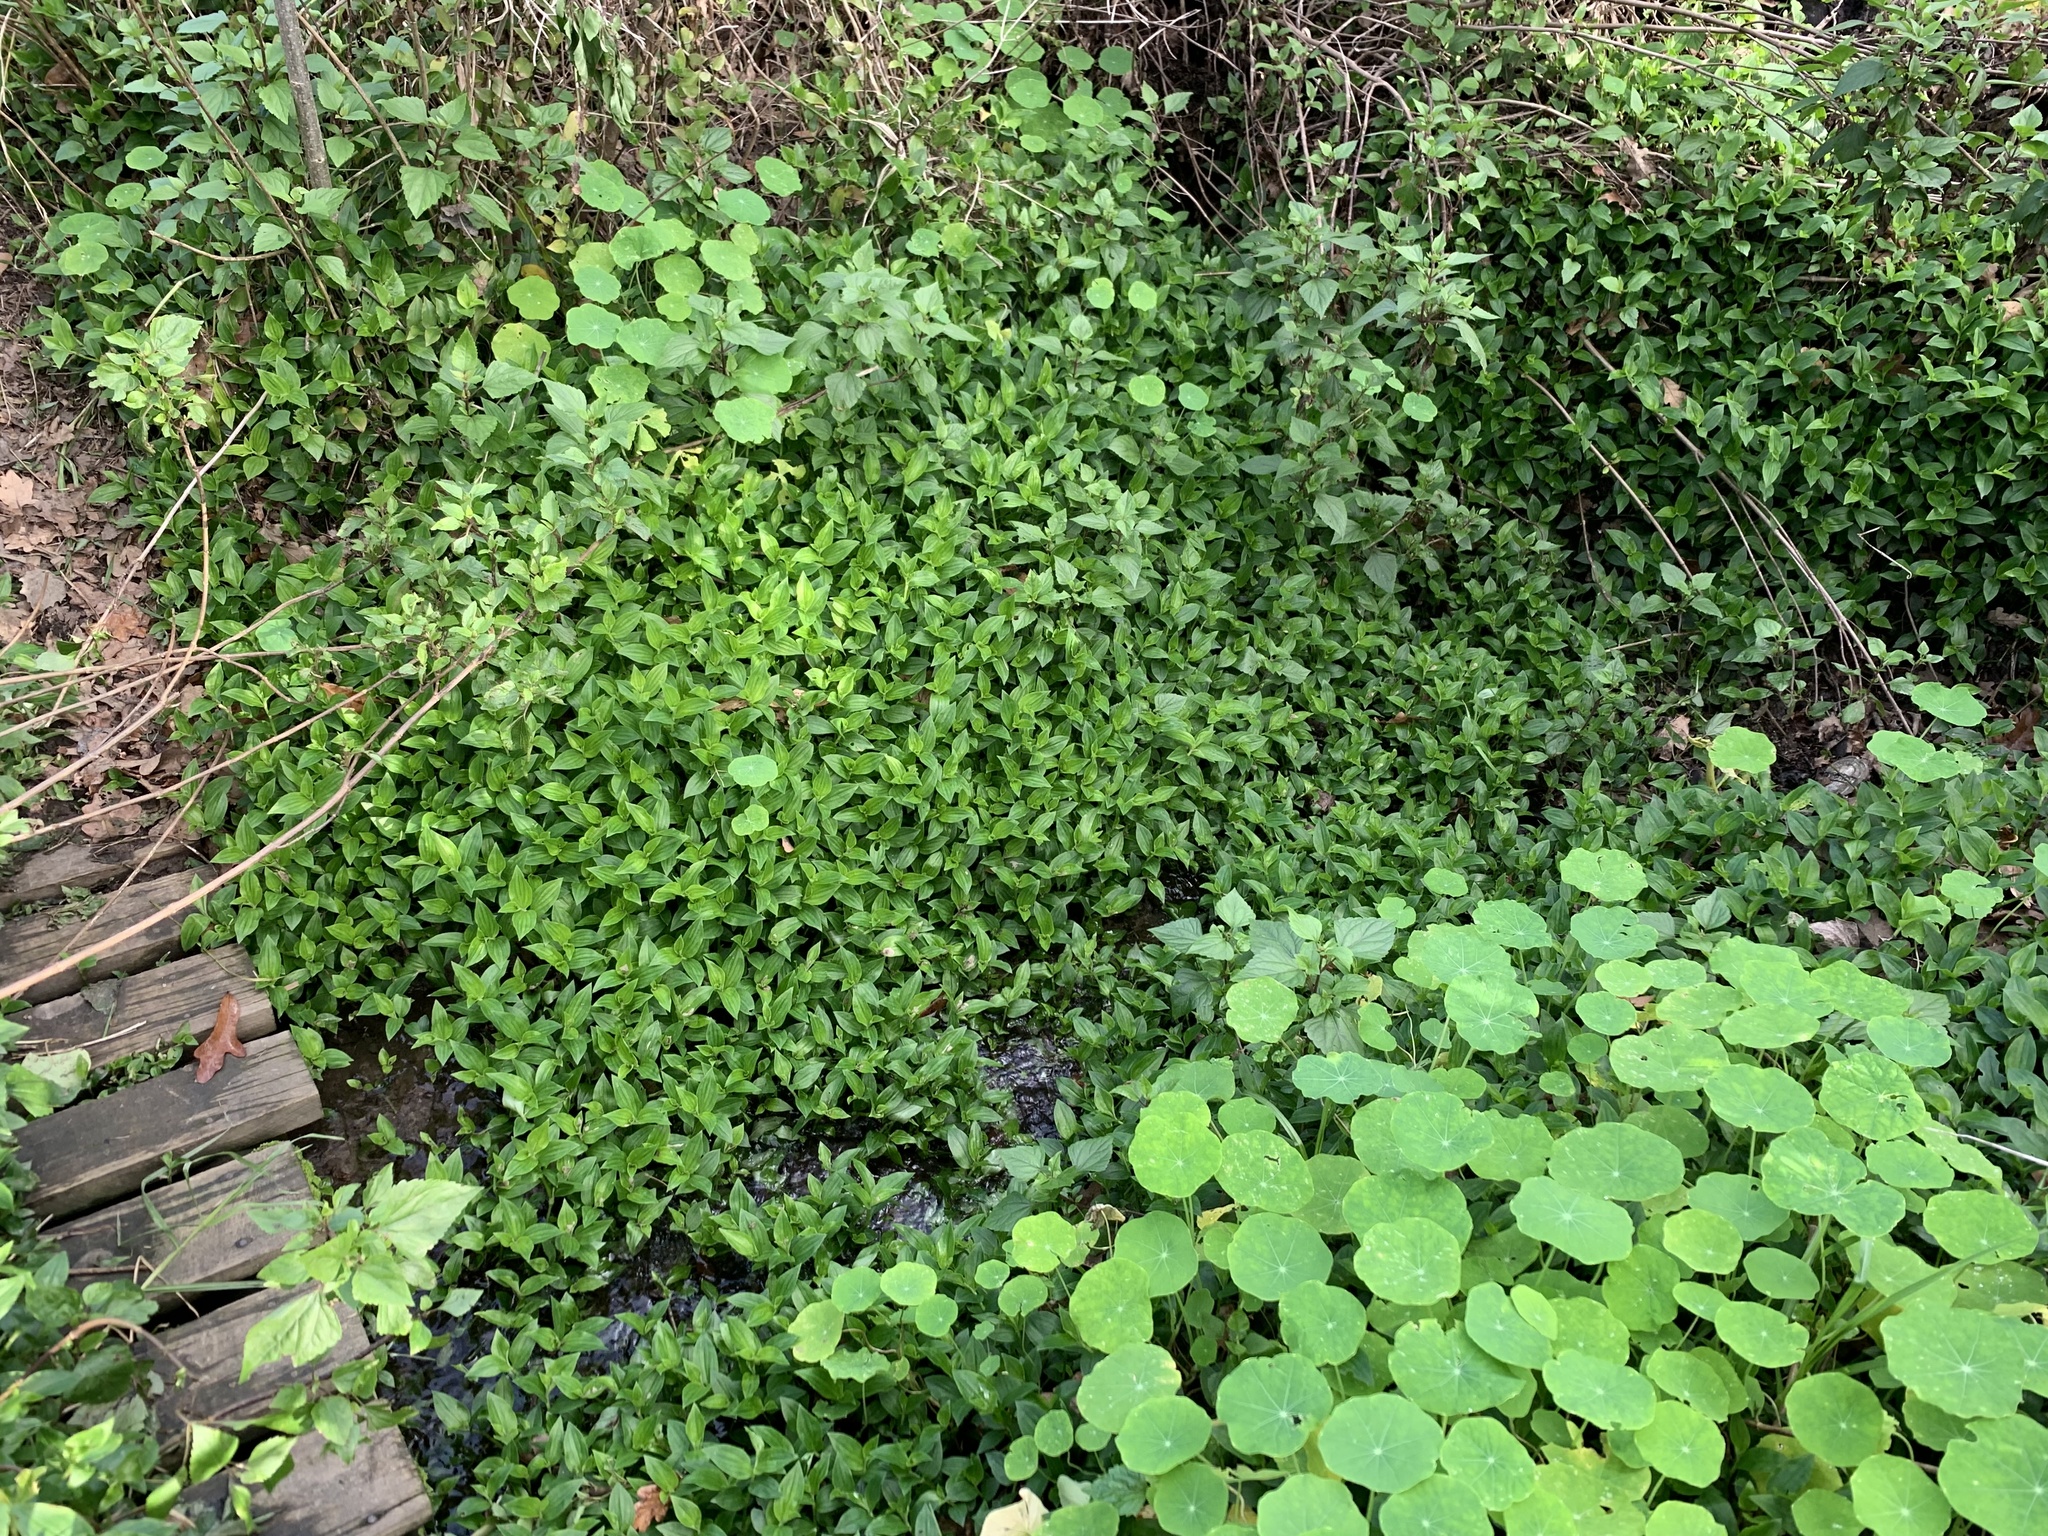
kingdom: Plantae
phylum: Tracheophyta
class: Liliopsida
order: Commelinales
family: Commelinaceae
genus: Tradescantia
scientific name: Tradescantia fluminensis
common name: Wandering-jew
